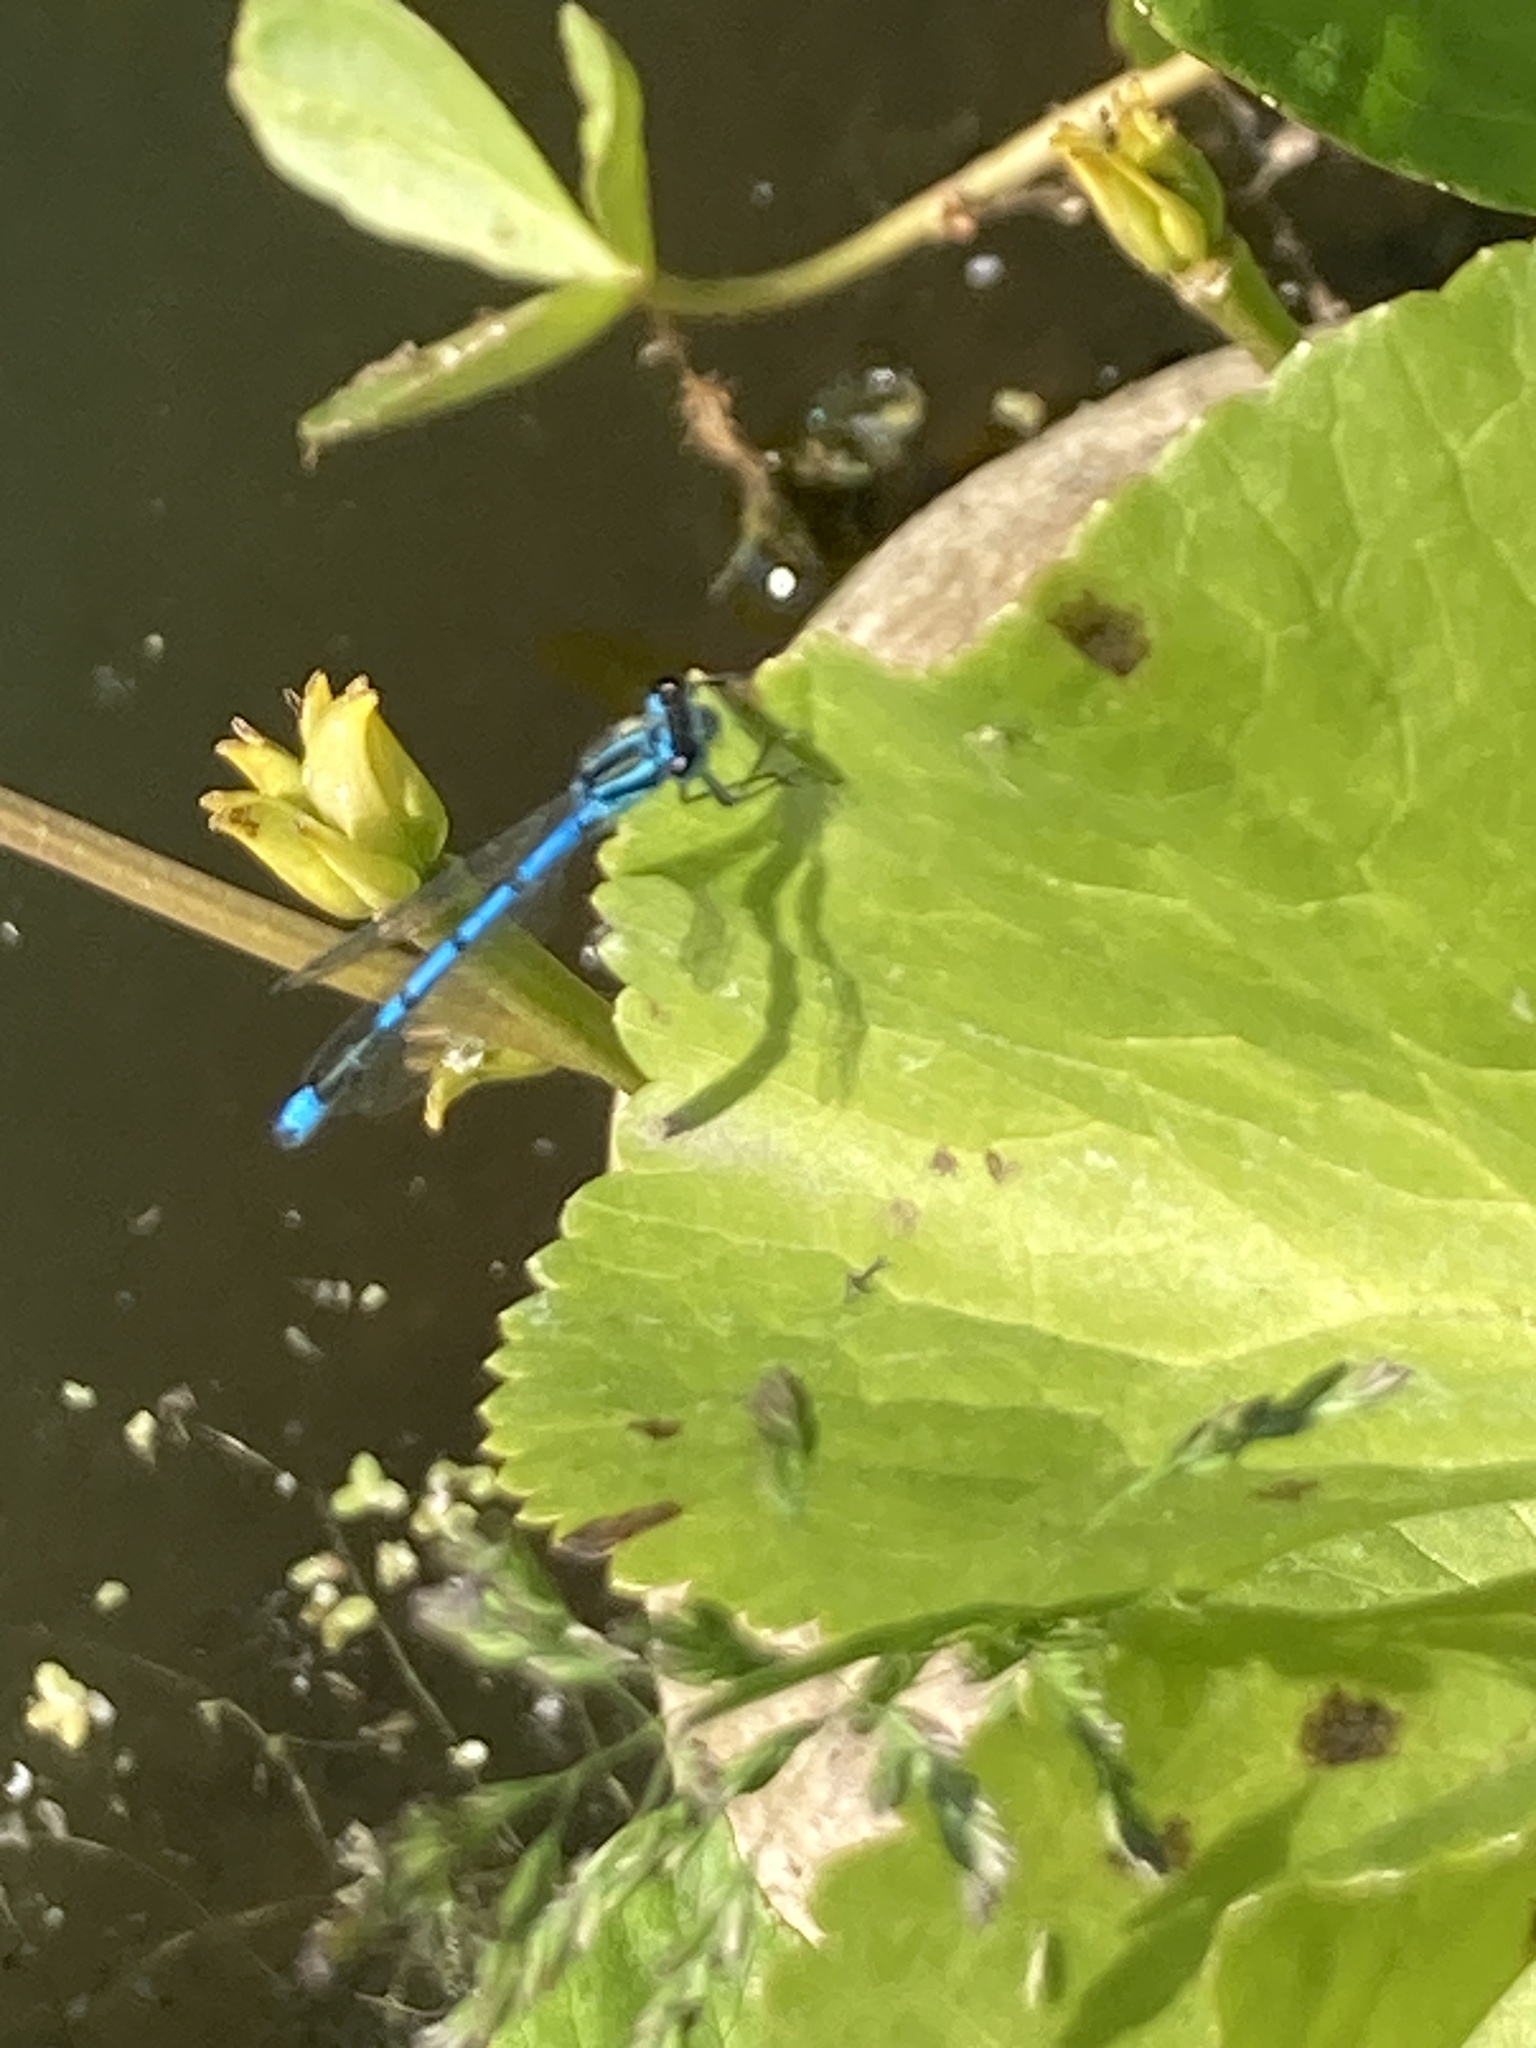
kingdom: Animalia
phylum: Arthropoda
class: Insecta
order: Odonata
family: Coenagrionidae
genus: Coenagrion
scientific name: Coenagrion puella
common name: Azure damselfly
